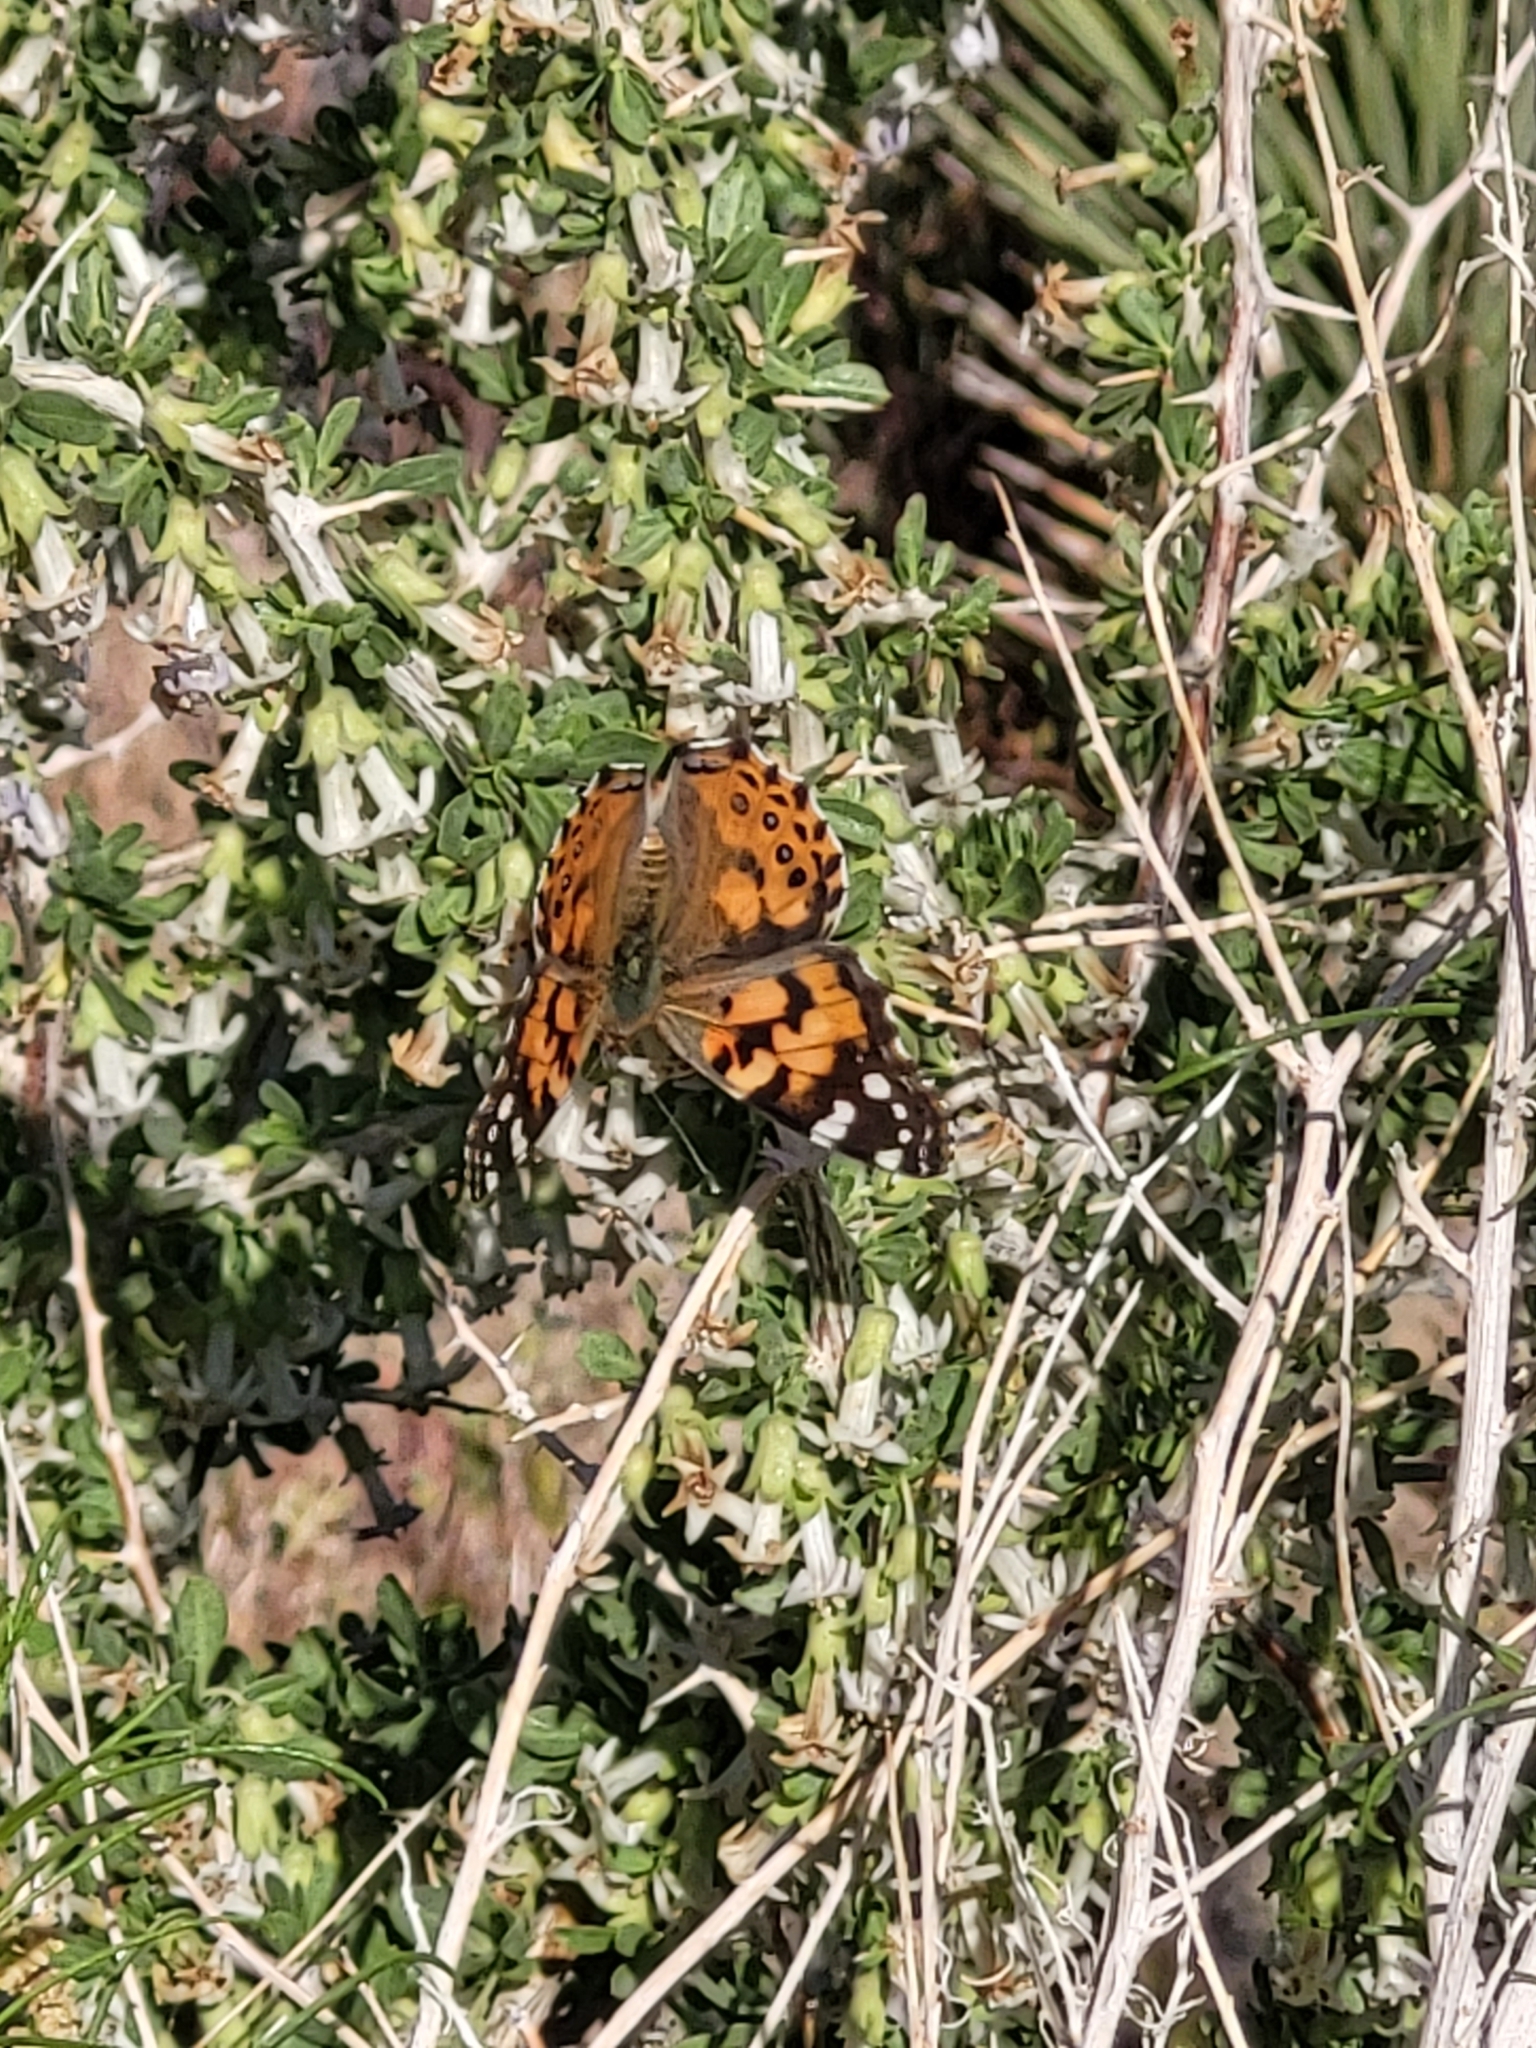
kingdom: Animalia
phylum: Arthropoda
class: Insecta
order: Lepidoptera
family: Nymphalidae
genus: Vanessa
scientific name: Vanessa cardui
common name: Painted lady
